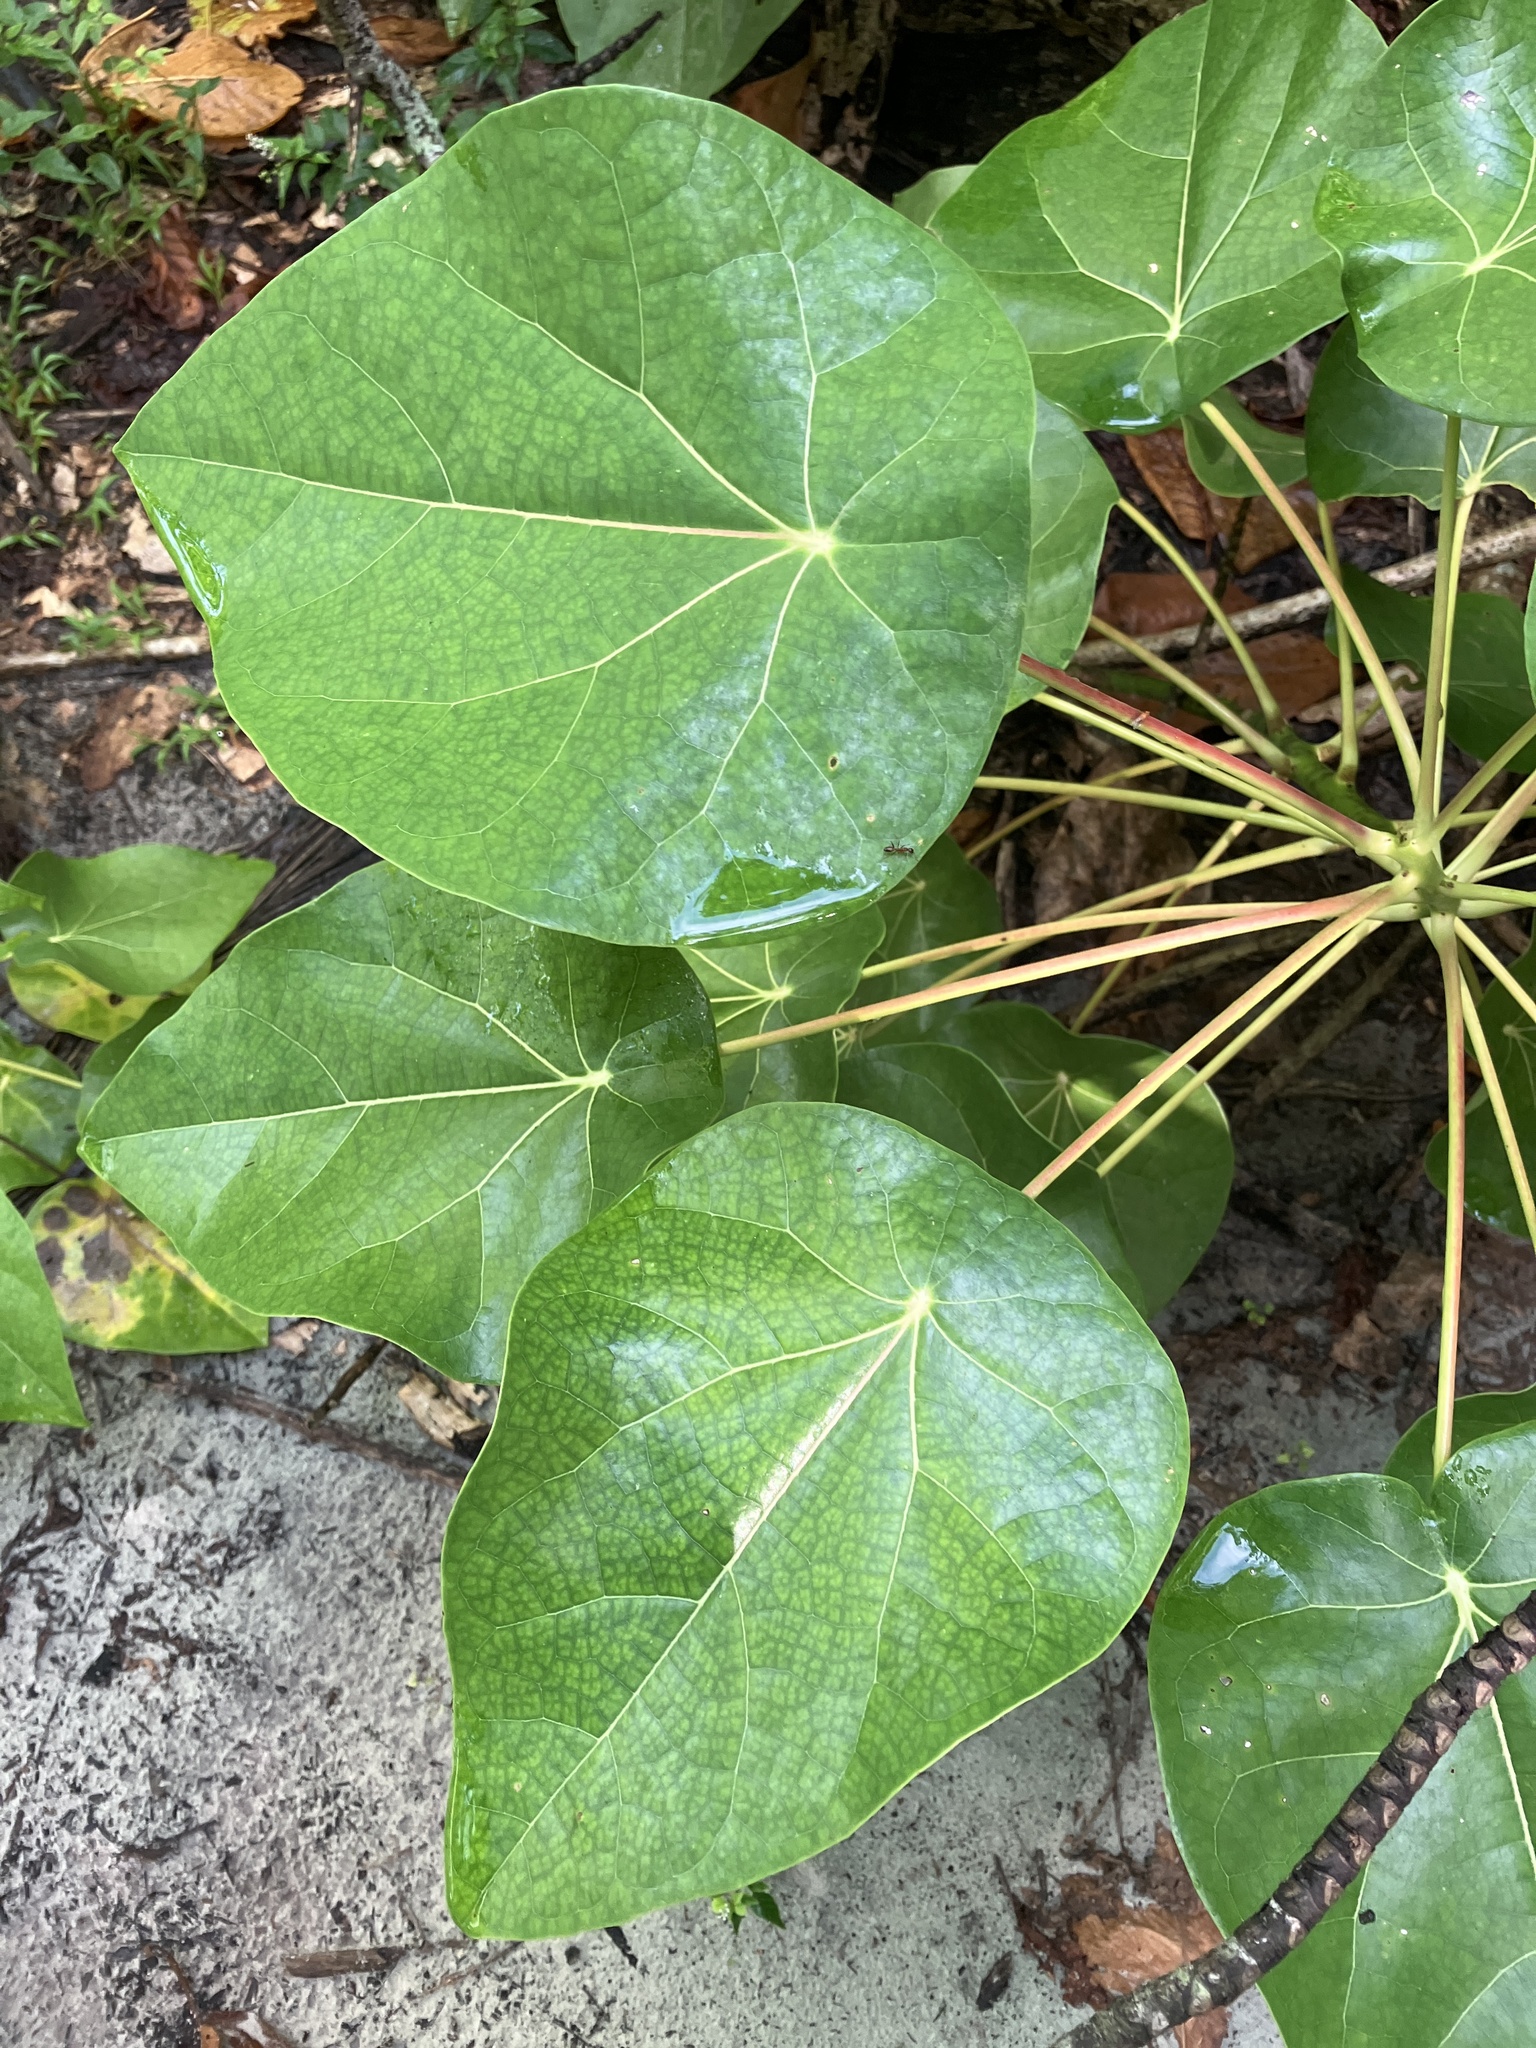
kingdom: Plantae
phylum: Tracheophyta
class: Magnoliopsida
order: Laurales
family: Hernandiaceae
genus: Hernandia
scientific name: Hernandia nymphaeifolia
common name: Sea hearse
